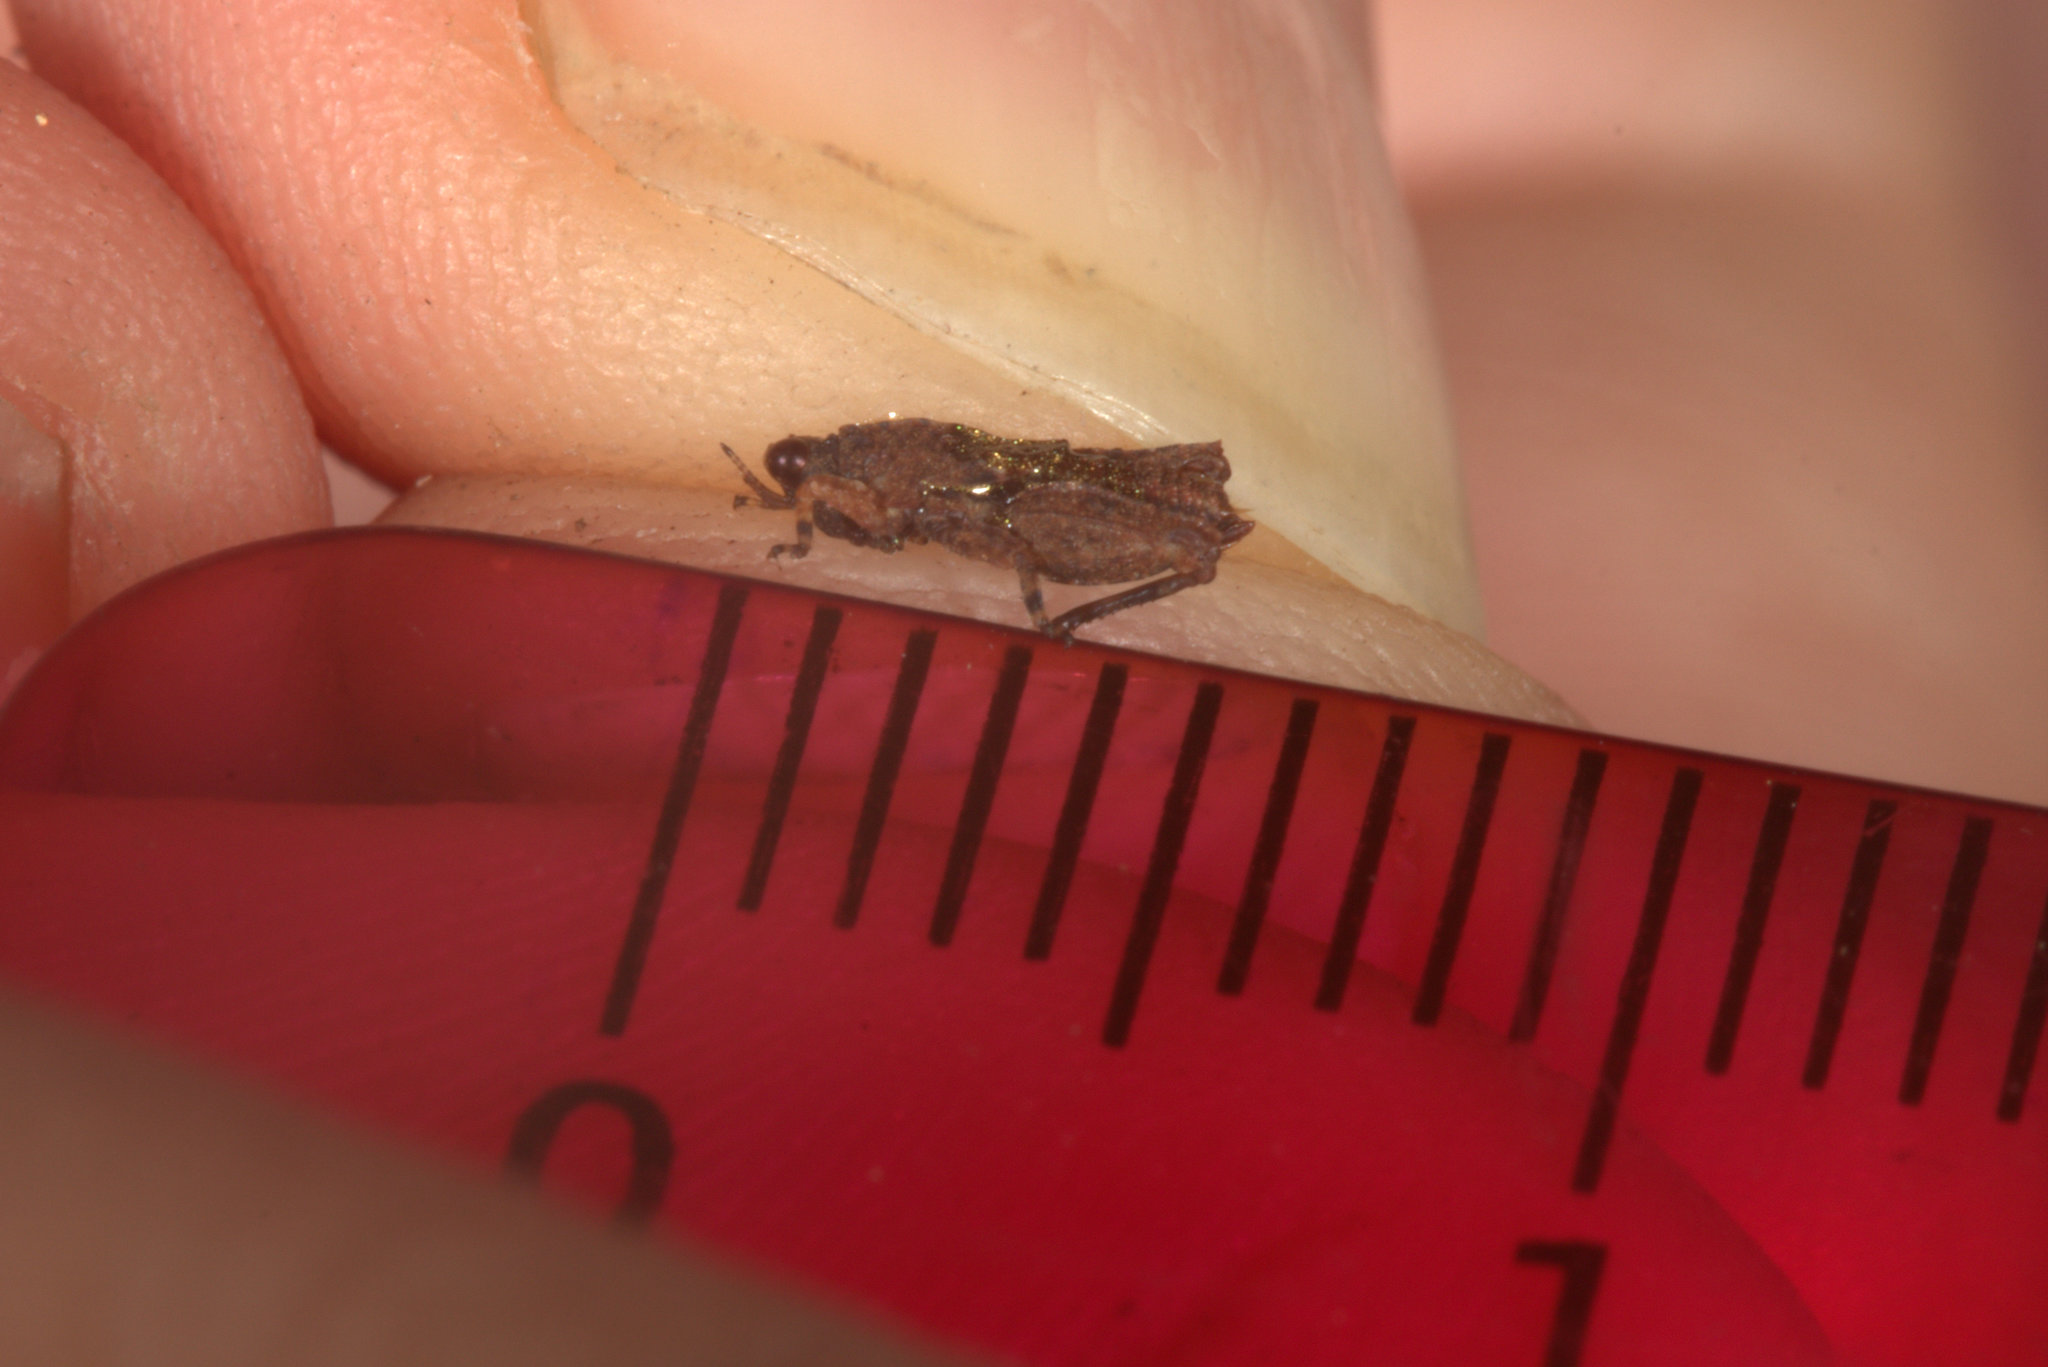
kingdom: Animalia
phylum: Arthropoda
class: Insecta
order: Orthoptera
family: Tetrigidae
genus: Amphinotus
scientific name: Amphinotus nymphula
